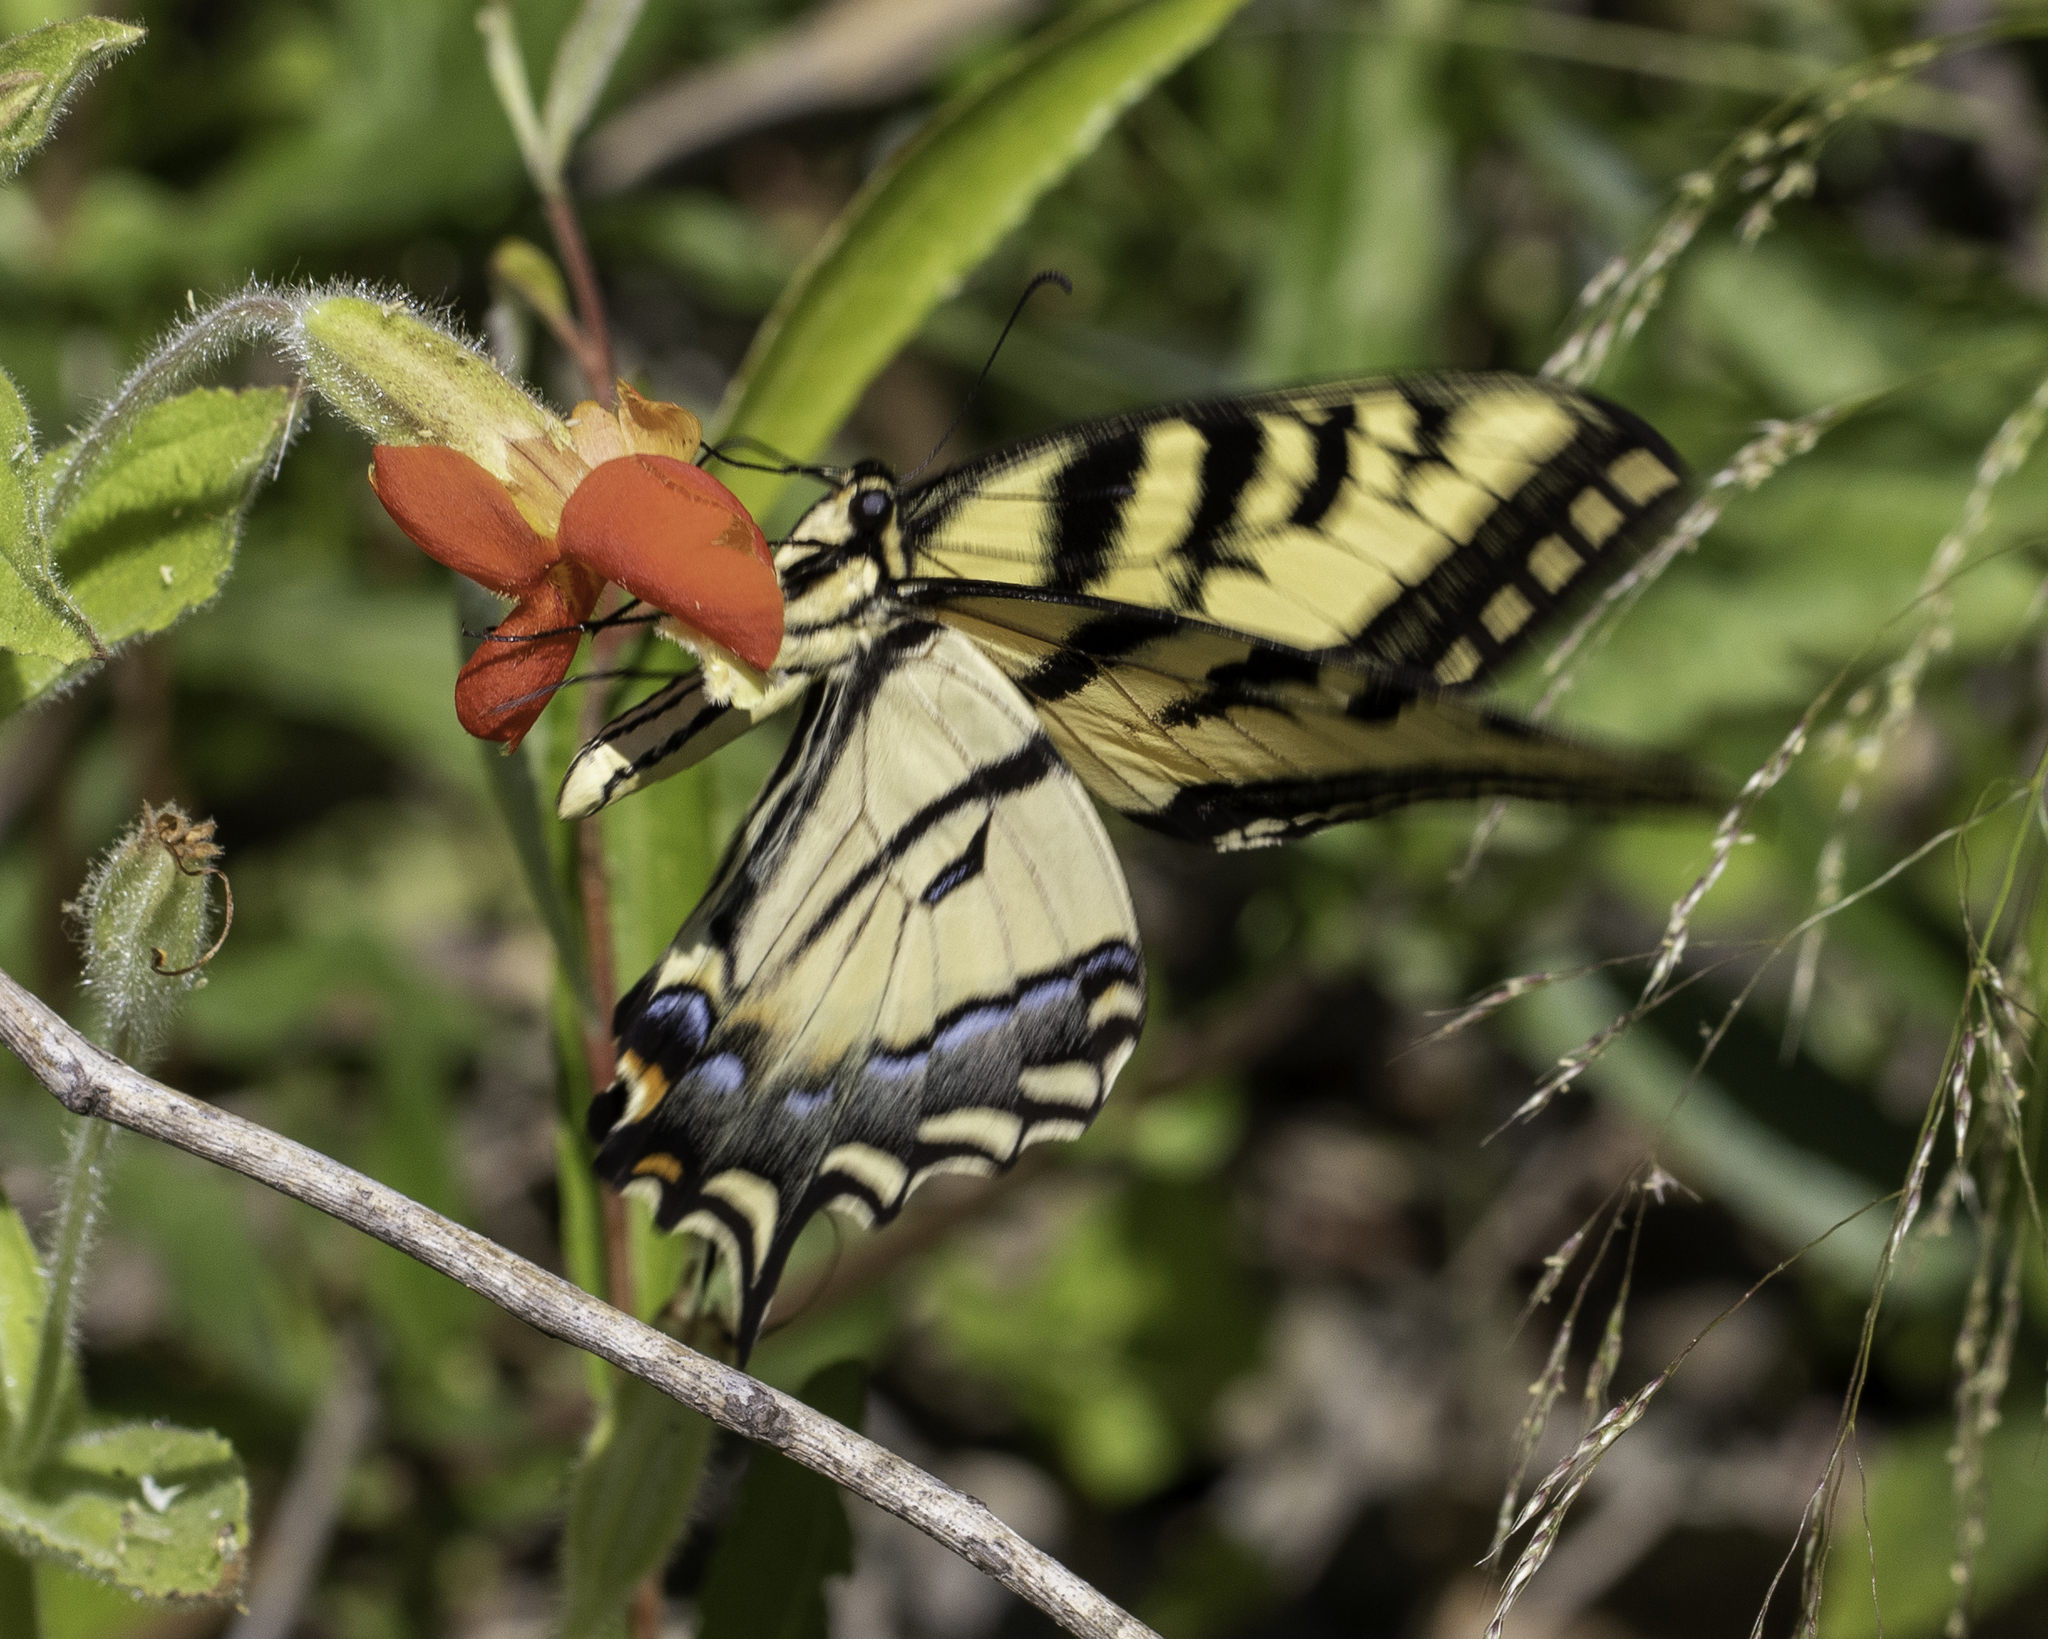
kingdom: Animalia
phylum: Arthropoda
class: Insecta
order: Lepidoptera
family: Papilionidae
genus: Papilio
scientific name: Papilio rutulus
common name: Western tiger swallowtail
